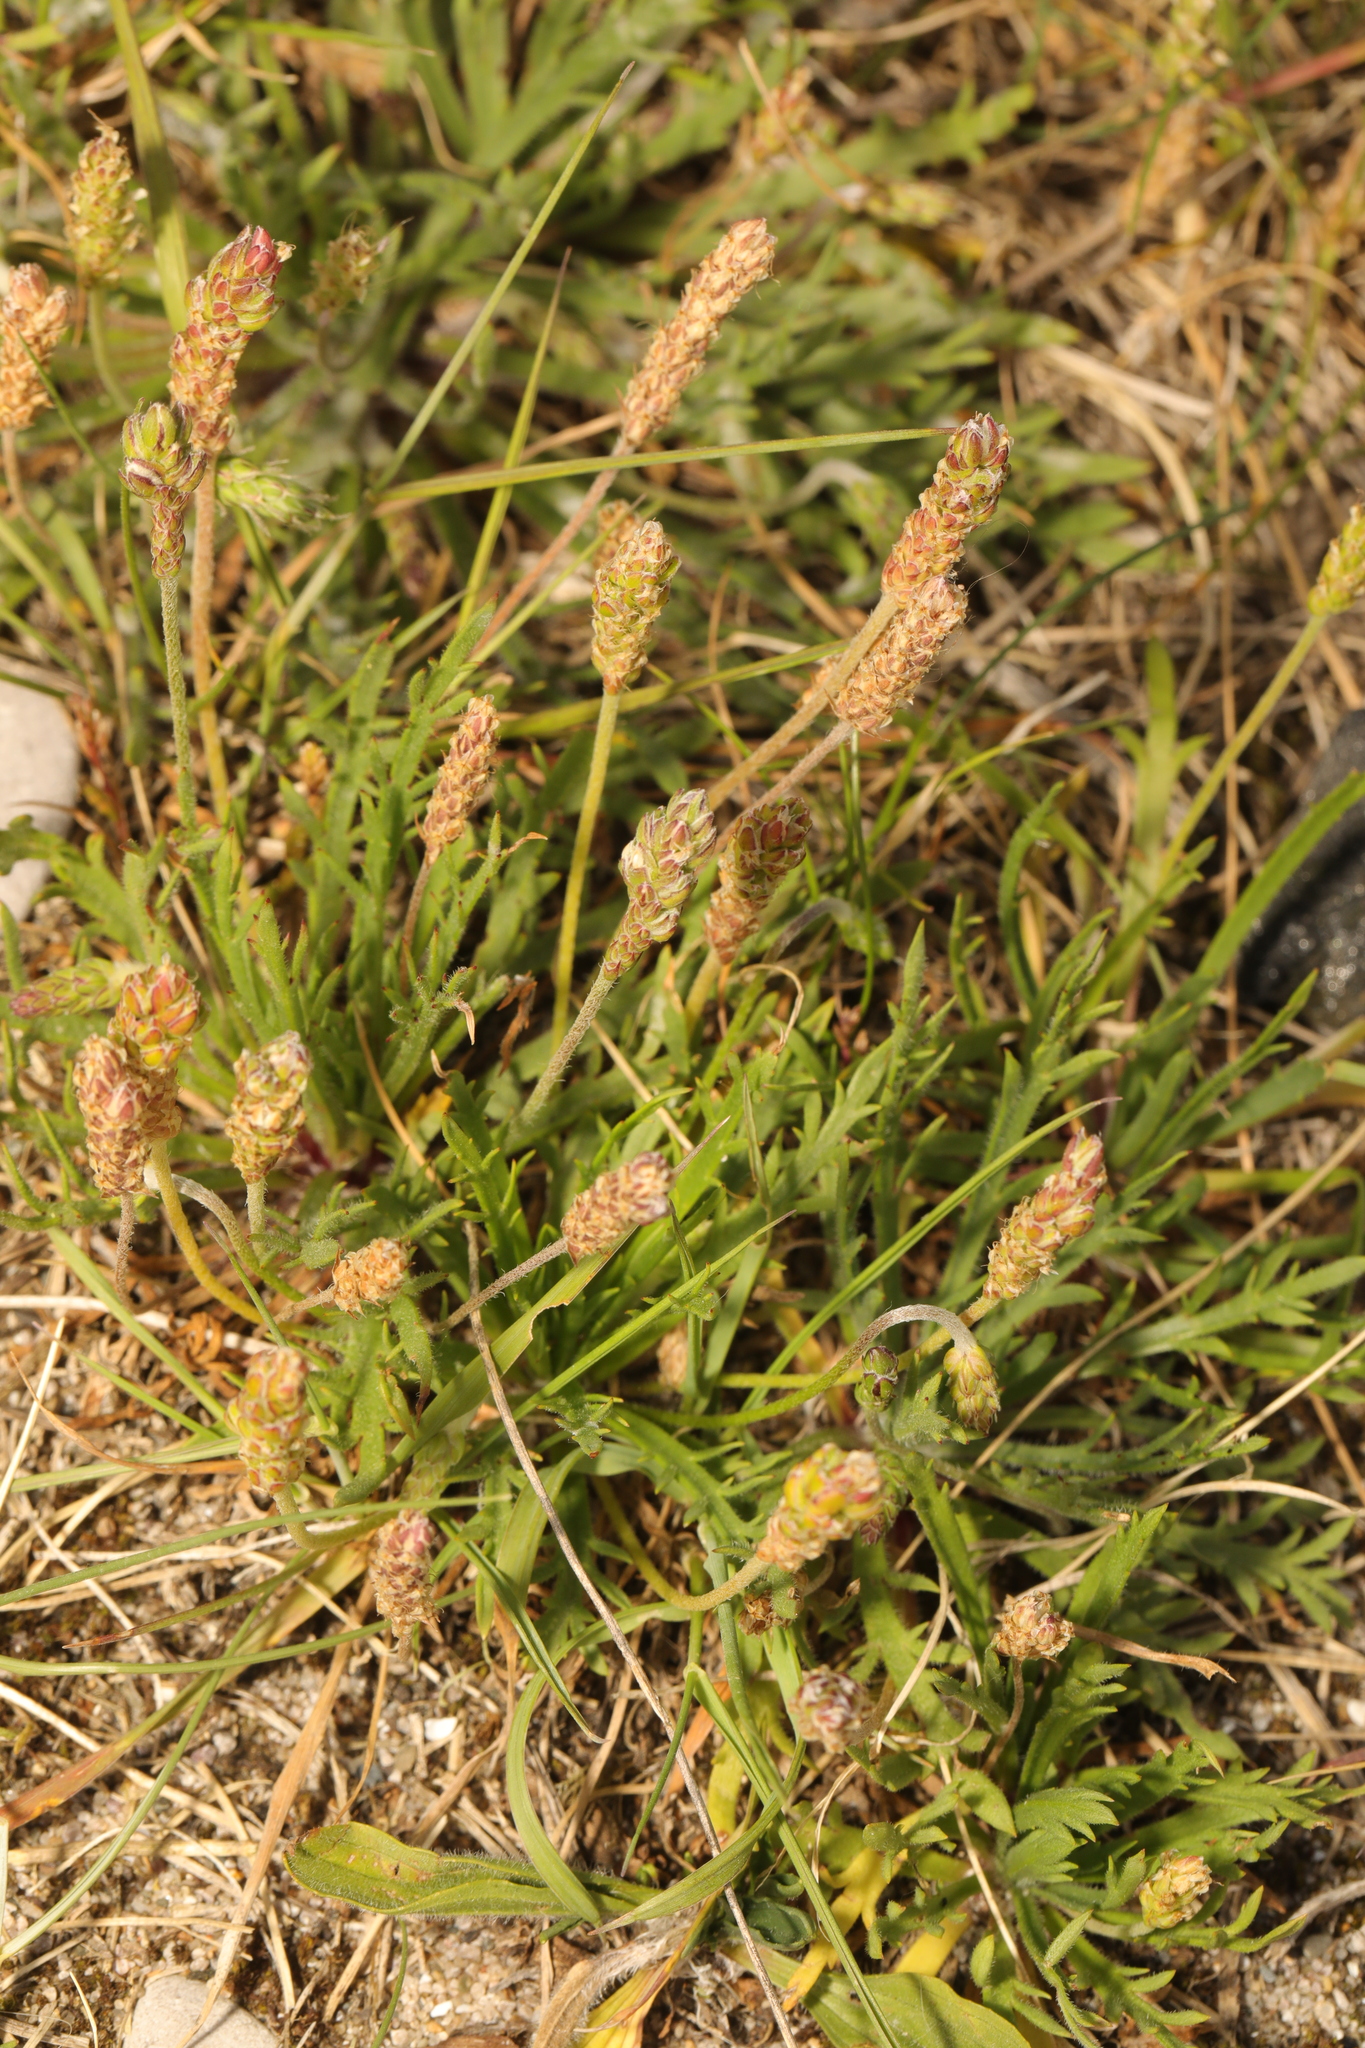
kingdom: Plantae
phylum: Tracheophyta
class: Magnoliopsida
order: Lamiales
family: Plantaginaceae
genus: Plantago
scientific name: Plantago coronopus
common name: Buck's-horn plantain
